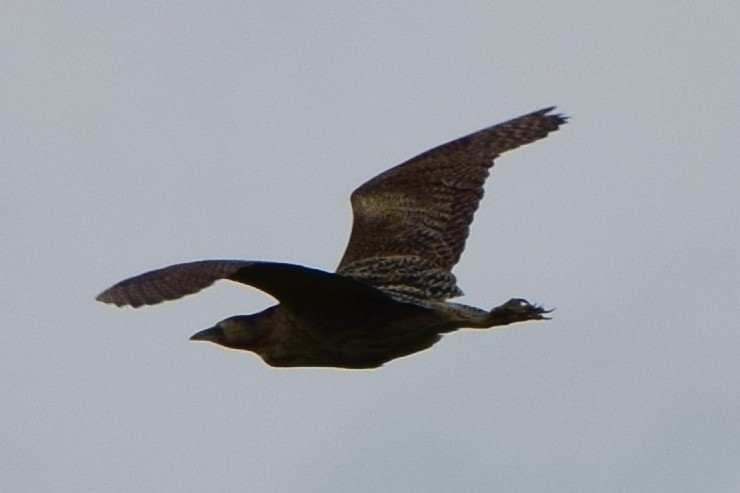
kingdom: Animalia
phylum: Chordata
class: Aves
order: Pelecaniformes
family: Ardeidae
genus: Botaurus
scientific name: Botaurus stellaris
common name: Eurasian bittern
